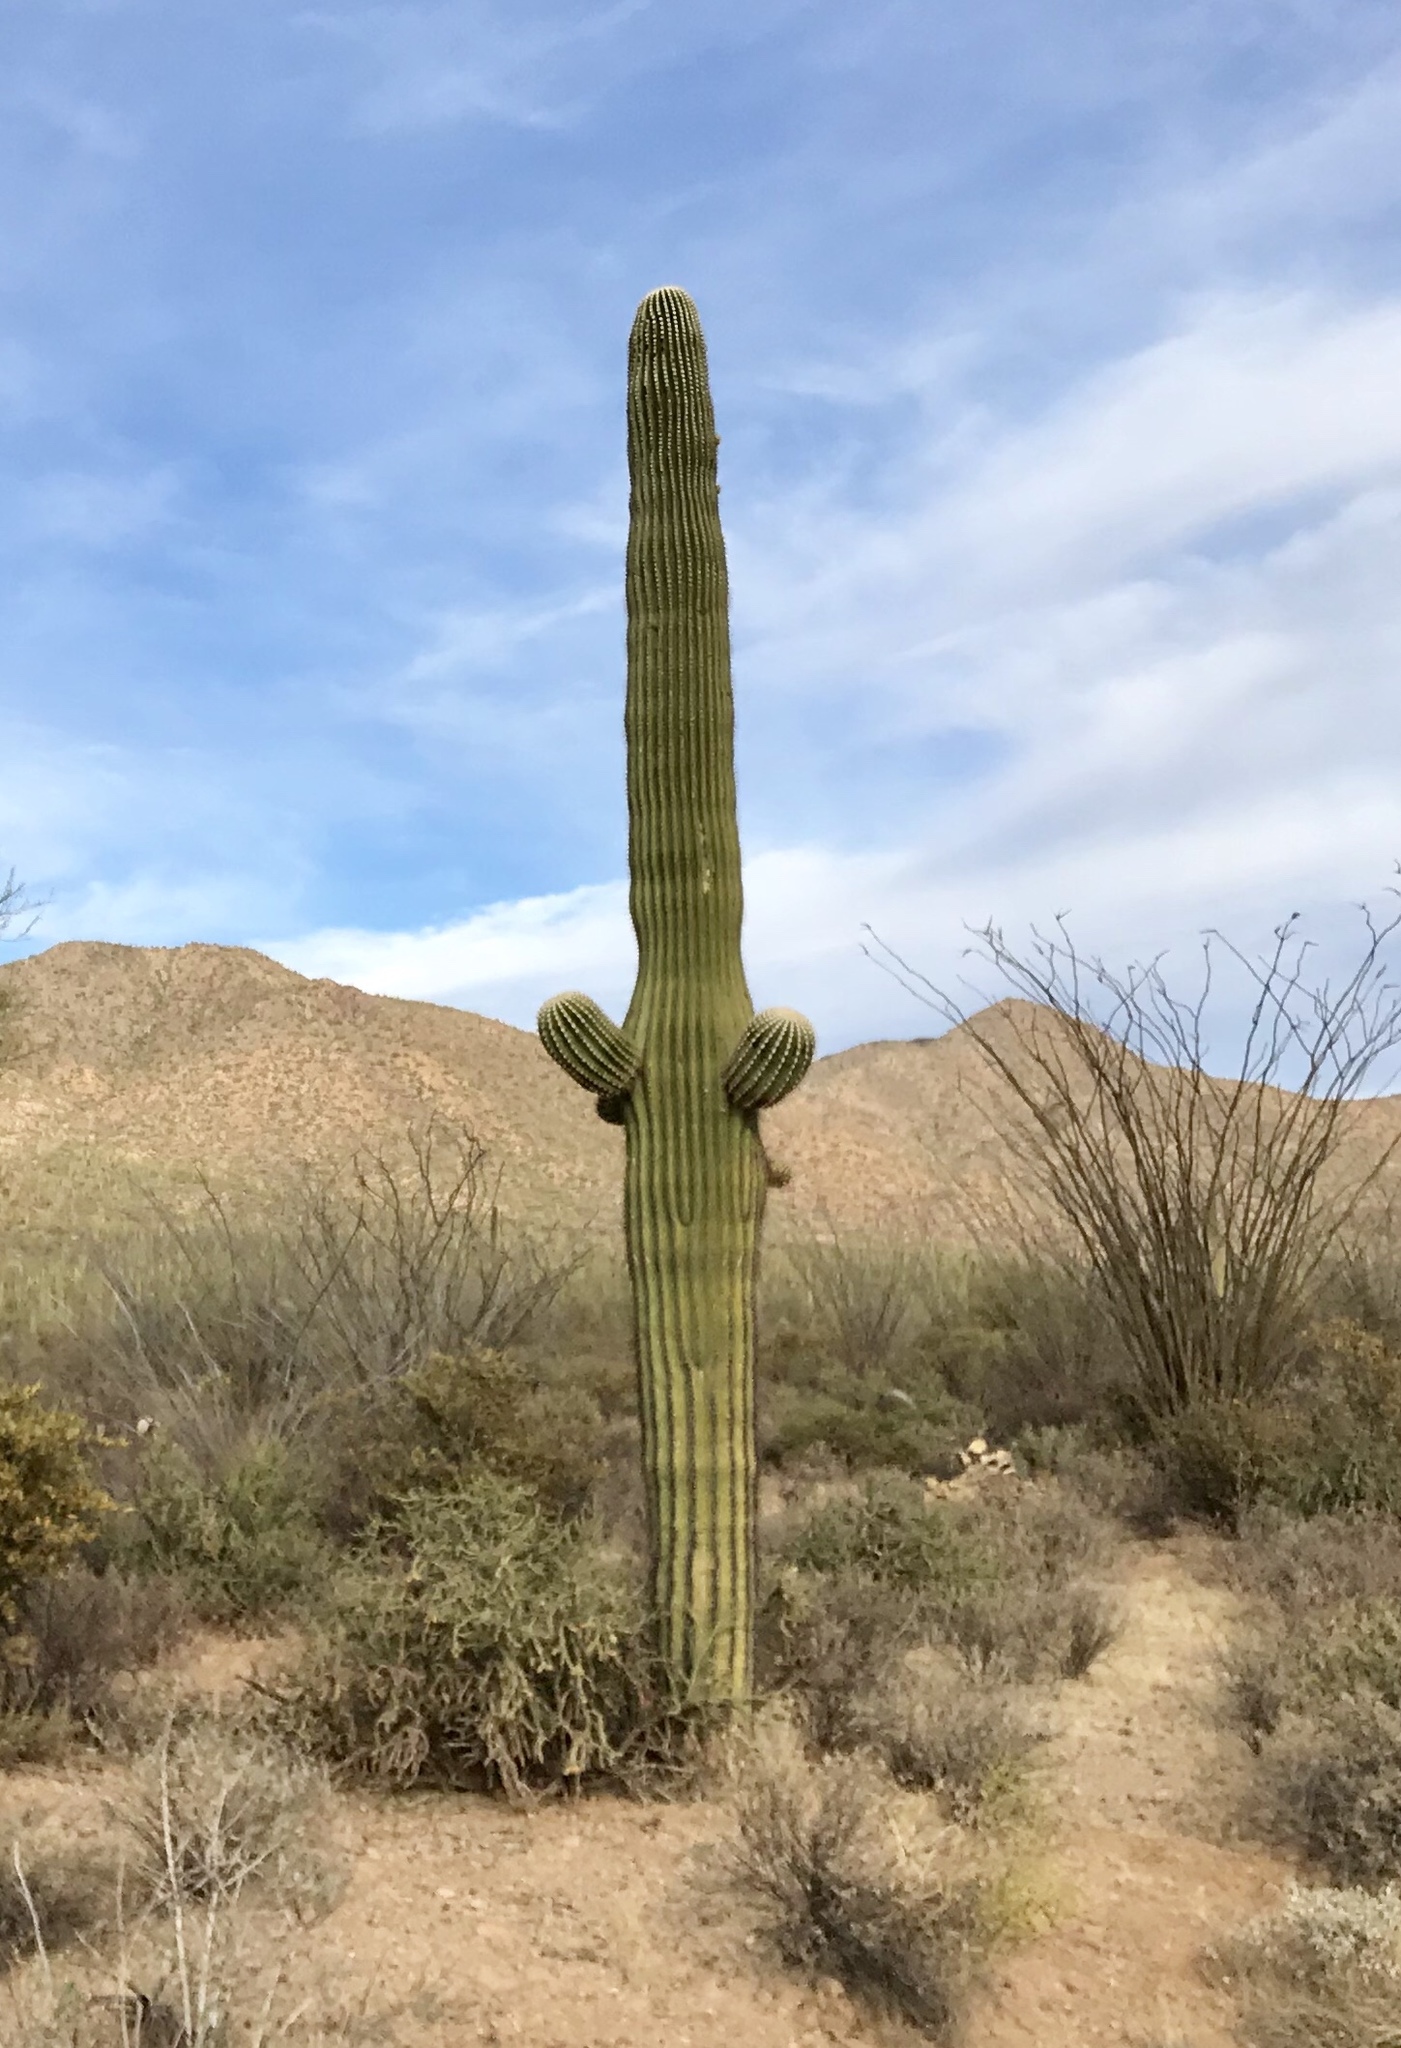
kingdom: Plantae
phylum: Tracheophyta
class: Magnoliopsida
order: Caryophyllales
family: Cactaceae
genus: Carnegiea
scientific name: Carnegiea gigantea
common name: Saguaro
